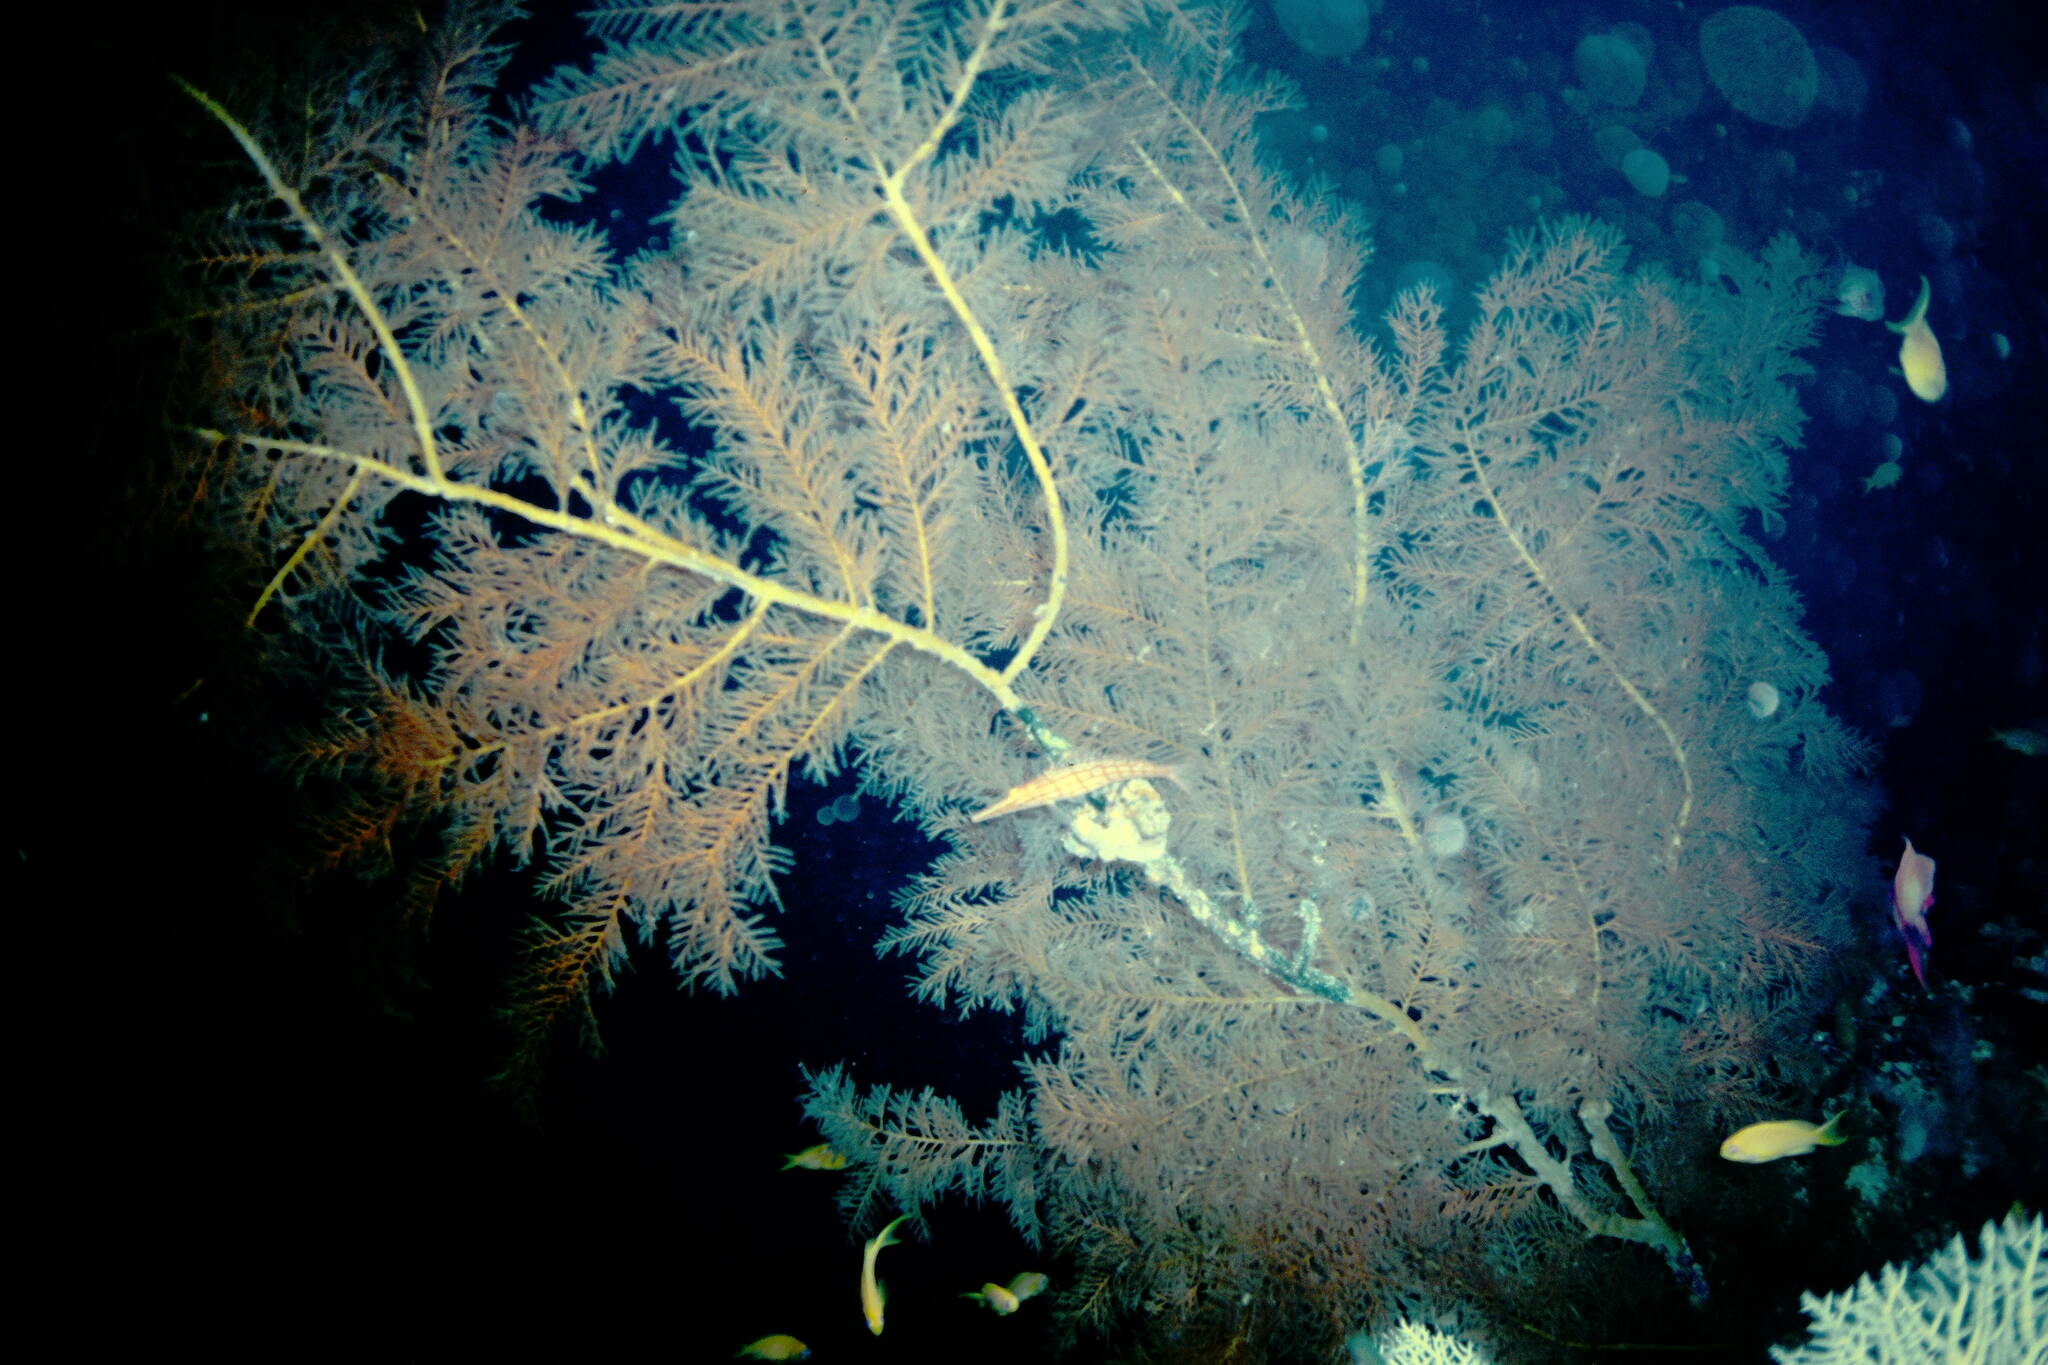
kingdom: Animalia
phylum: Chordata
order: Perciformes
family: Cirrhitidae
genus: Oxycirrhites
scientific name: Oxycirrhites typus
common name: Longnose hawkfish
